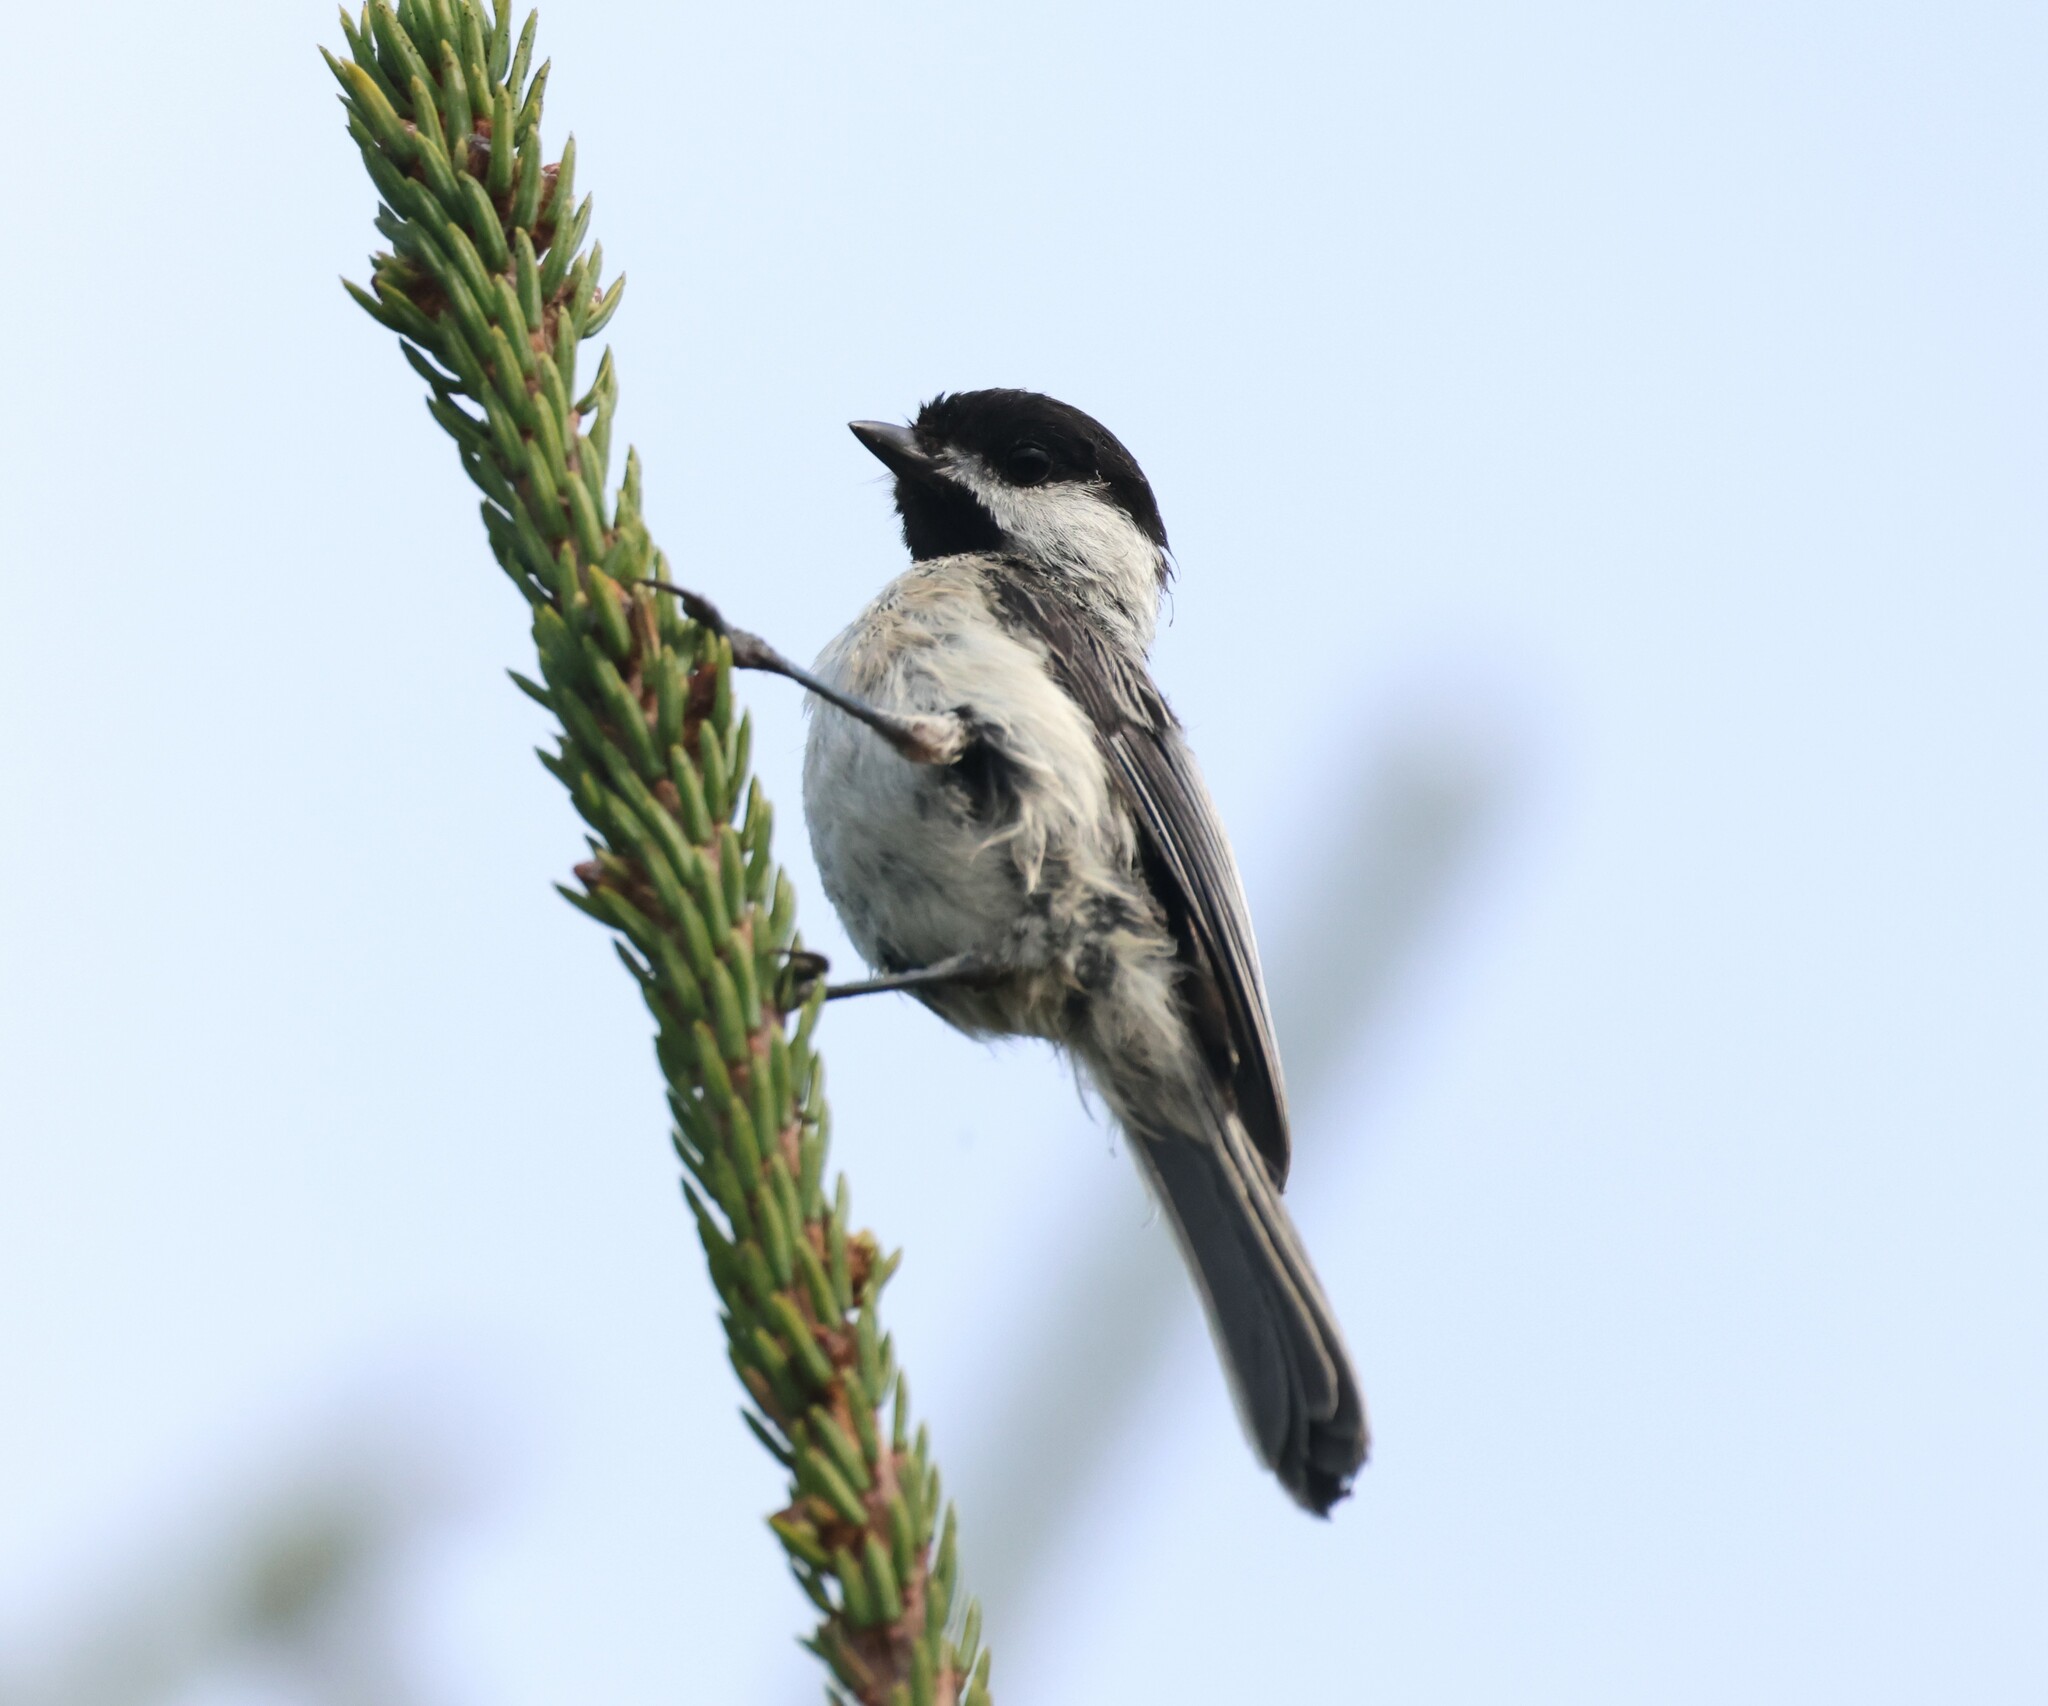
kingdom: Animalia
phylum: Chordata
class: Aves
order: Passeriformes
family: Paridae
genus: Poecile
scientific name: Poecile atricapillus
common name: Black-capped chickadee
